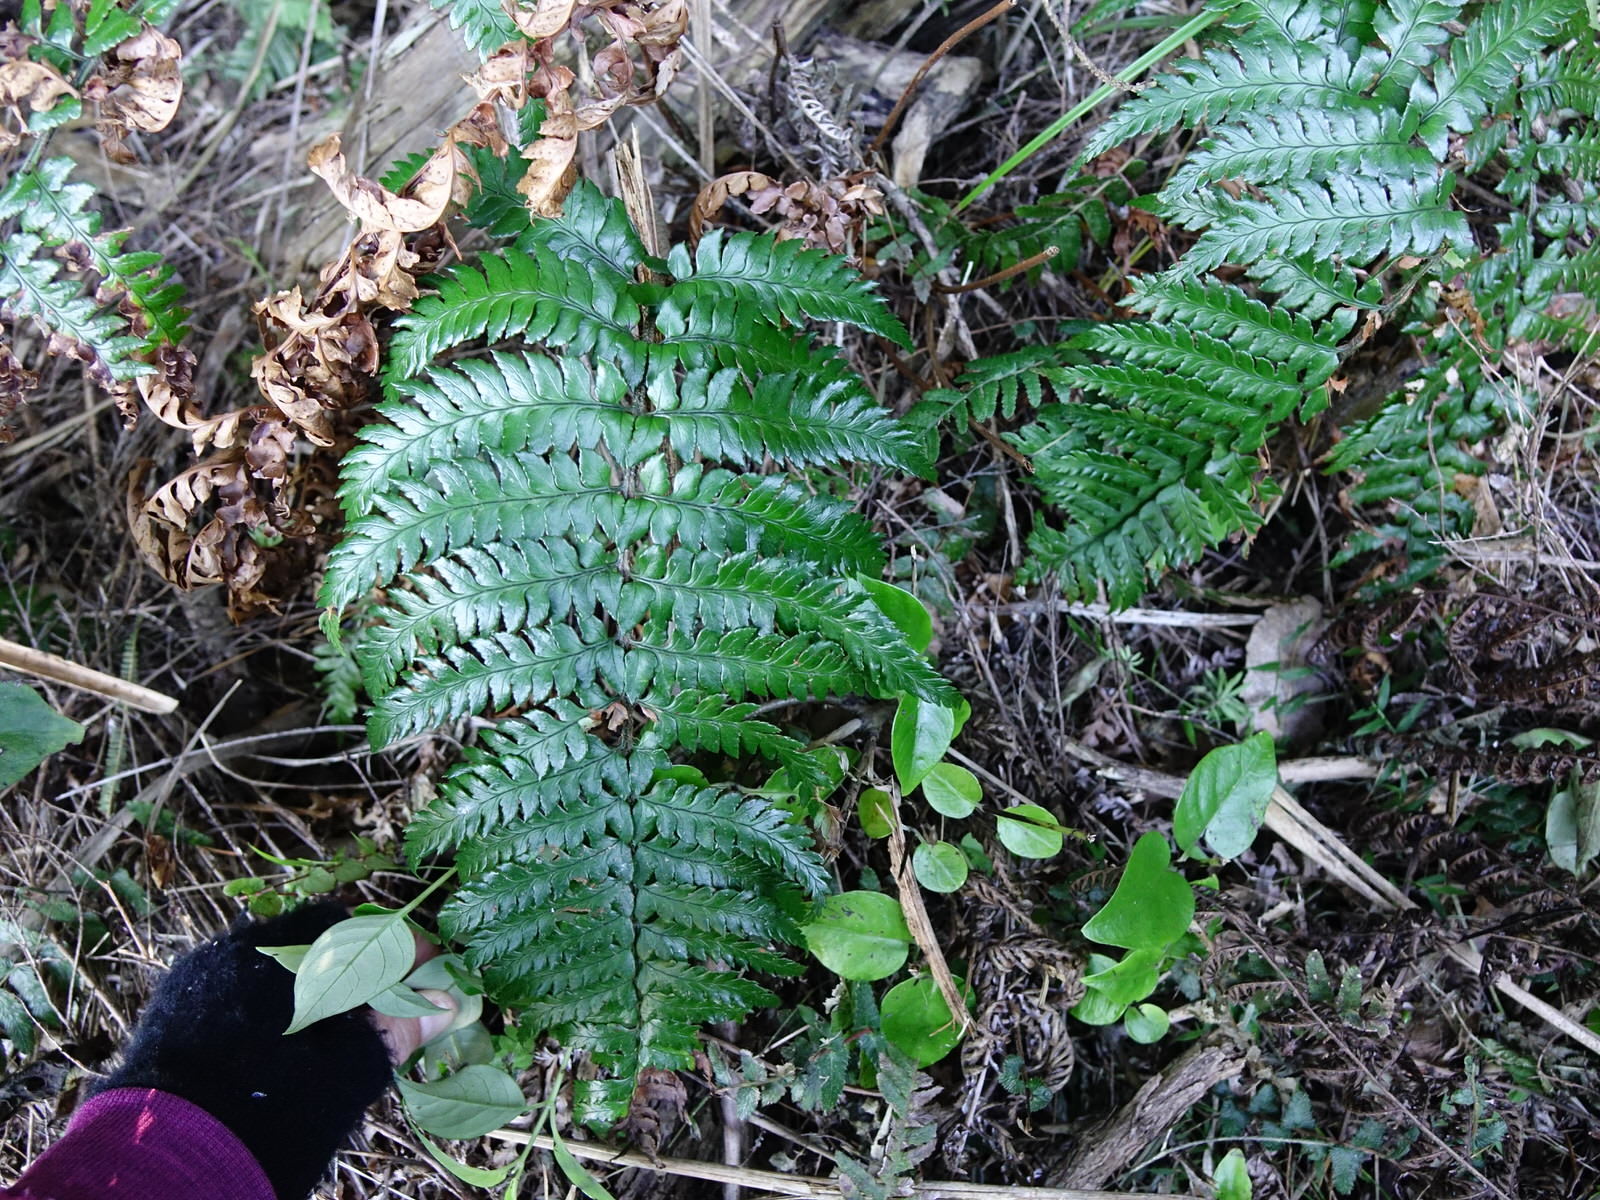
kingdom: Plantae
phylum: Tracheophyta
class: Polypodiopsida
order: Polypodiales
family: Dryopteridaceae
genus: Polystichum
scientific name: Polystichum wawranum
